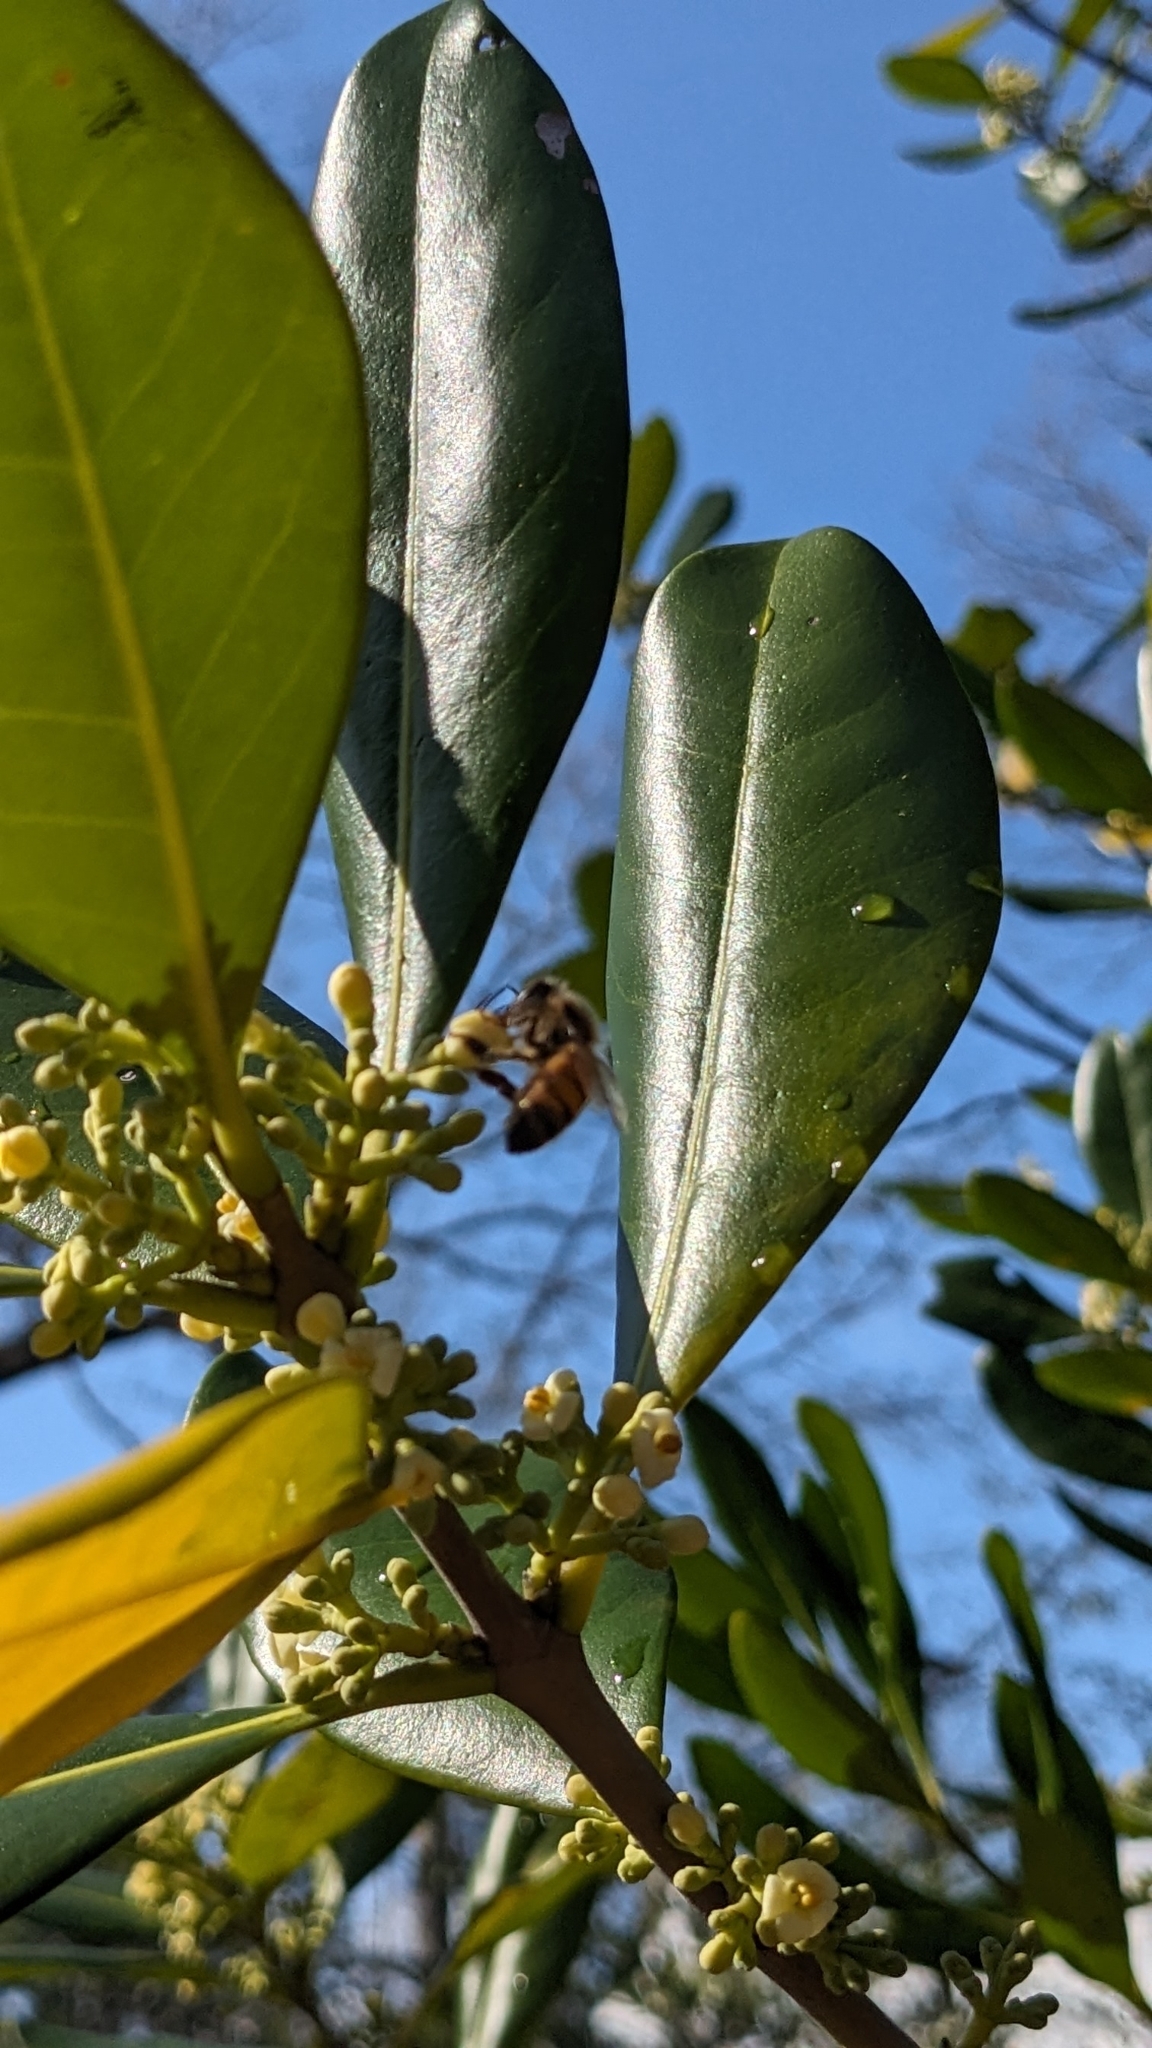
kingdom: Animalia
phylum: Arthropoda
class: Insecta
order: Hymenoptera
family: Apidae
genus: Apis
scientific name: Apis mellifera
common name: Honey bee
